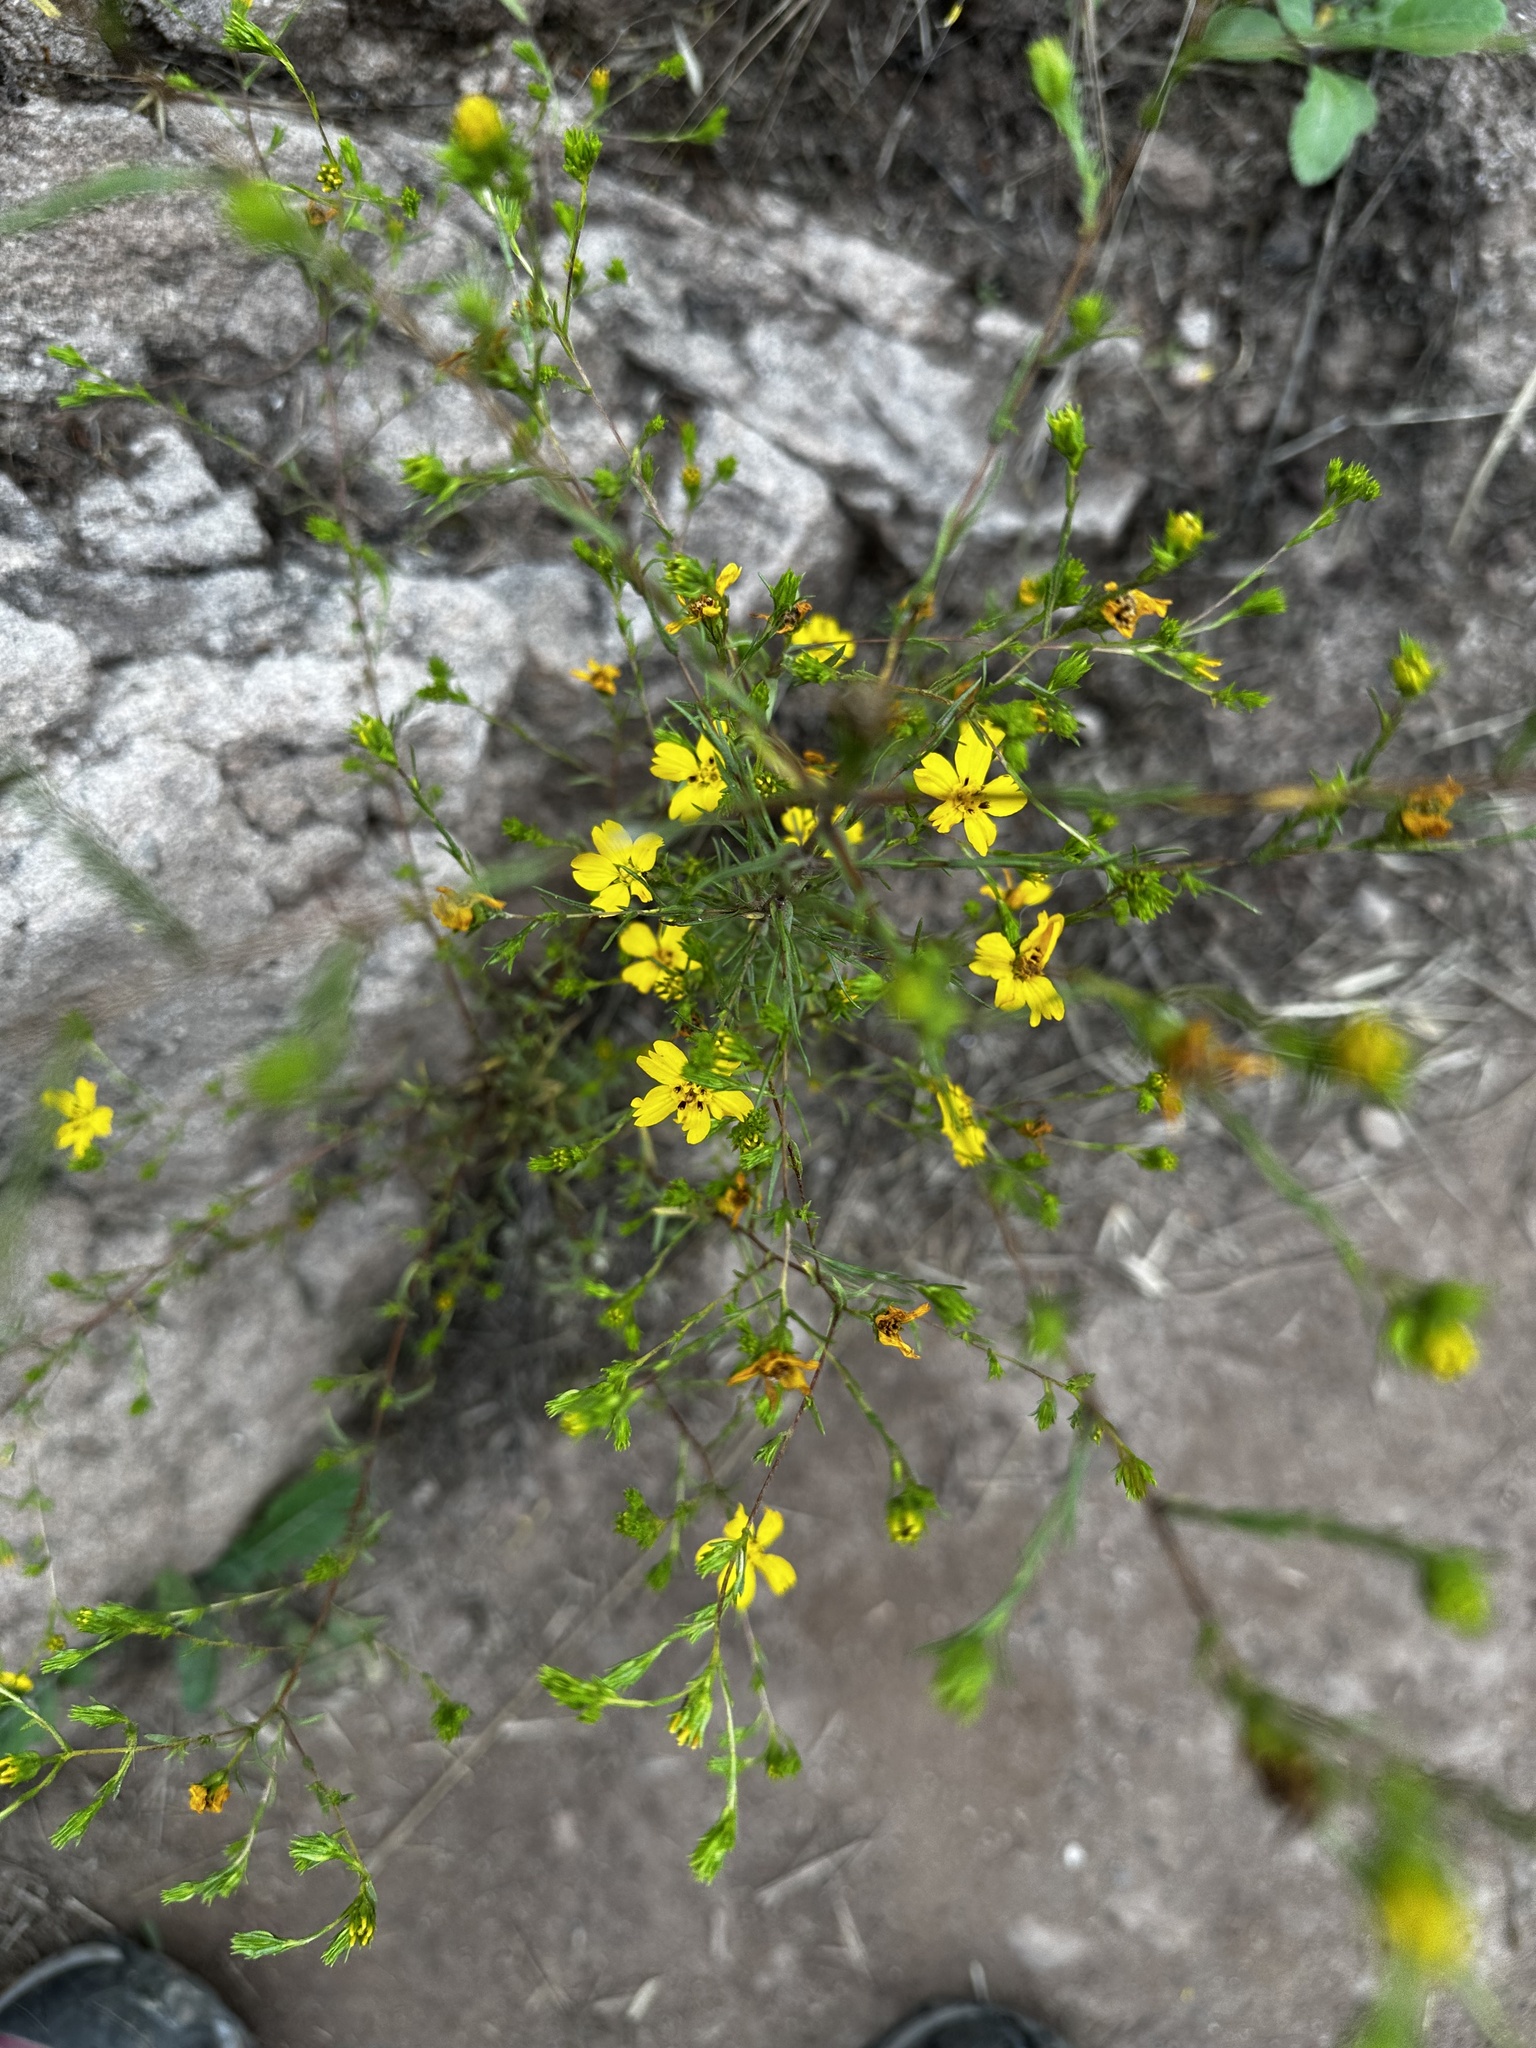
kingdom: Plantae
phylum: Tracheophyta
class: Magnoliopsida
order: Asterales
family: Asteraceae
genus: Deinandra
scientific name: Deinandra fasciculata
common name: Clustered tarweed
